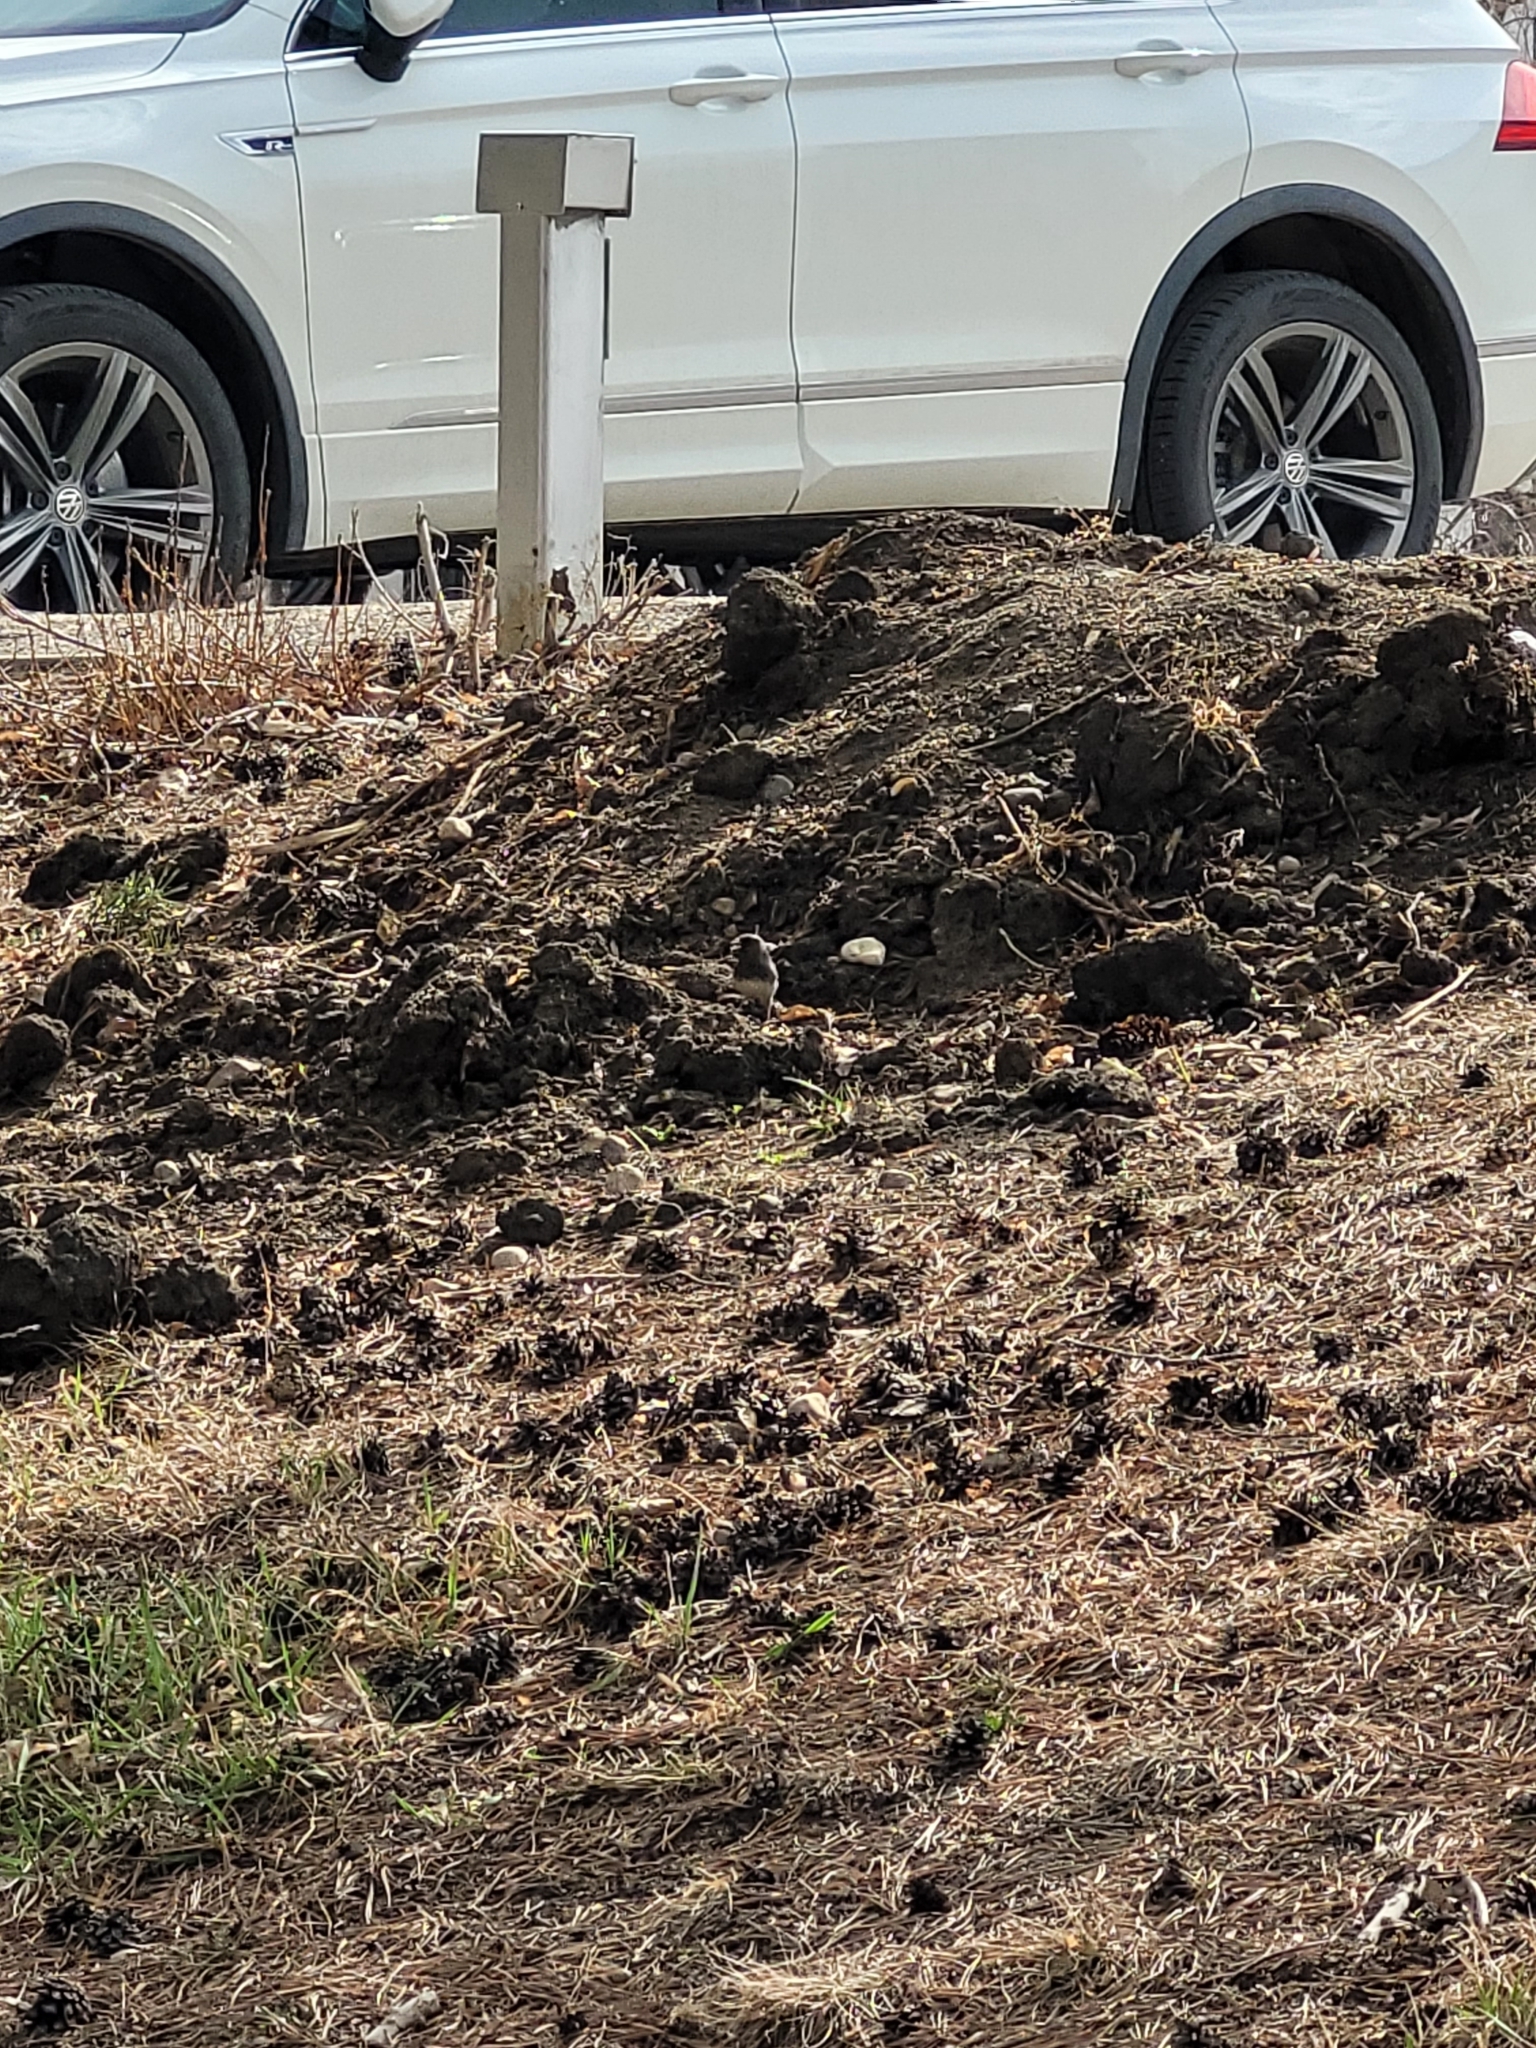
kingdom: Animalia
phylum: Chordata
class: Aves
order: Passeriformes
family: Passerellidae
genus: Junco
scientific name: Junco hyemalis
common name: Dark-eyed junco
